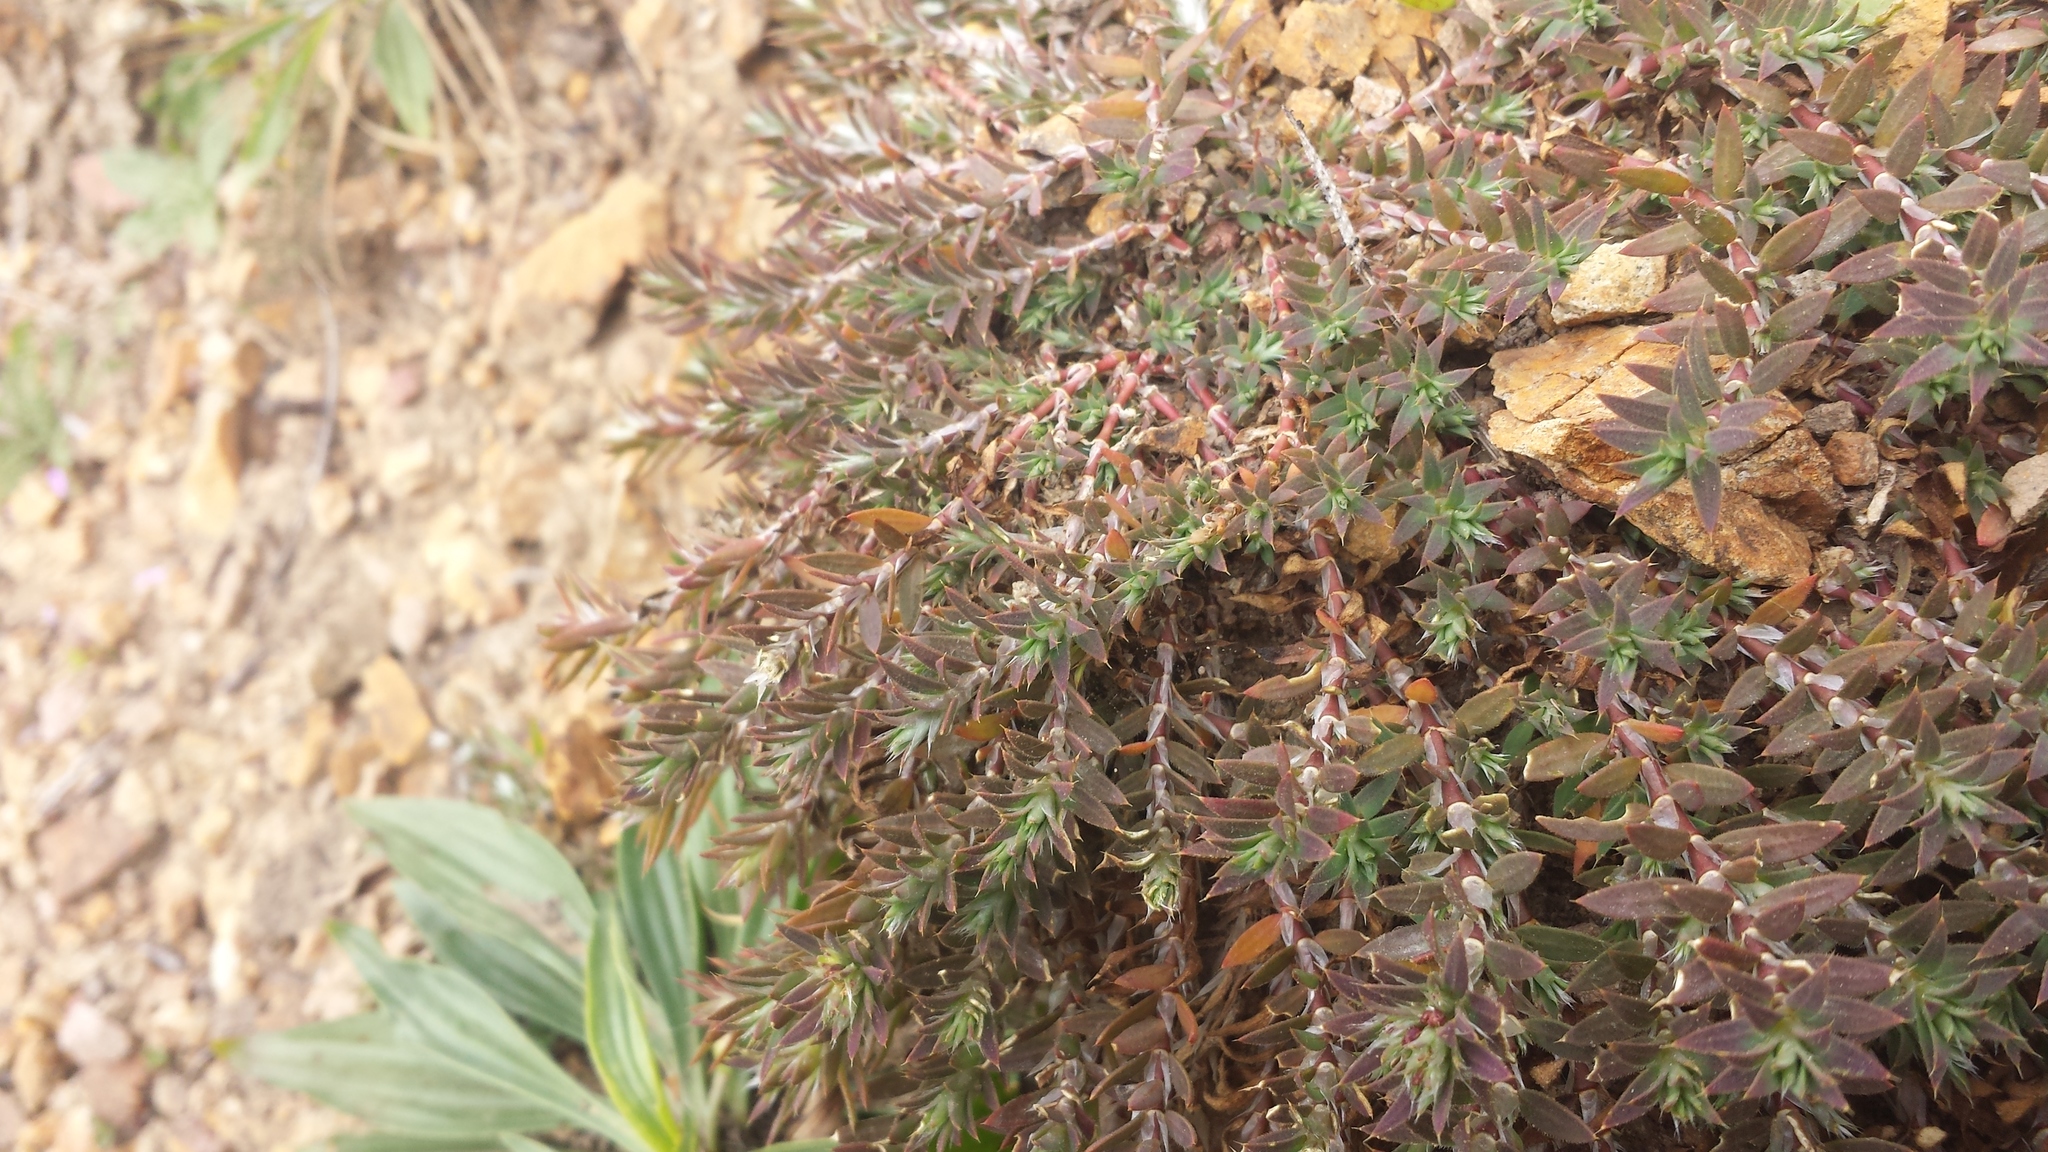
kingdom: Plantae
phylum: Tracheophyta
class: Magnoliopsida
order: Caryophyllales
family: Caryophyllaceae
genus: Cardionema
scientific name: Cardionema ramosissima
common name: Sandcarpet
